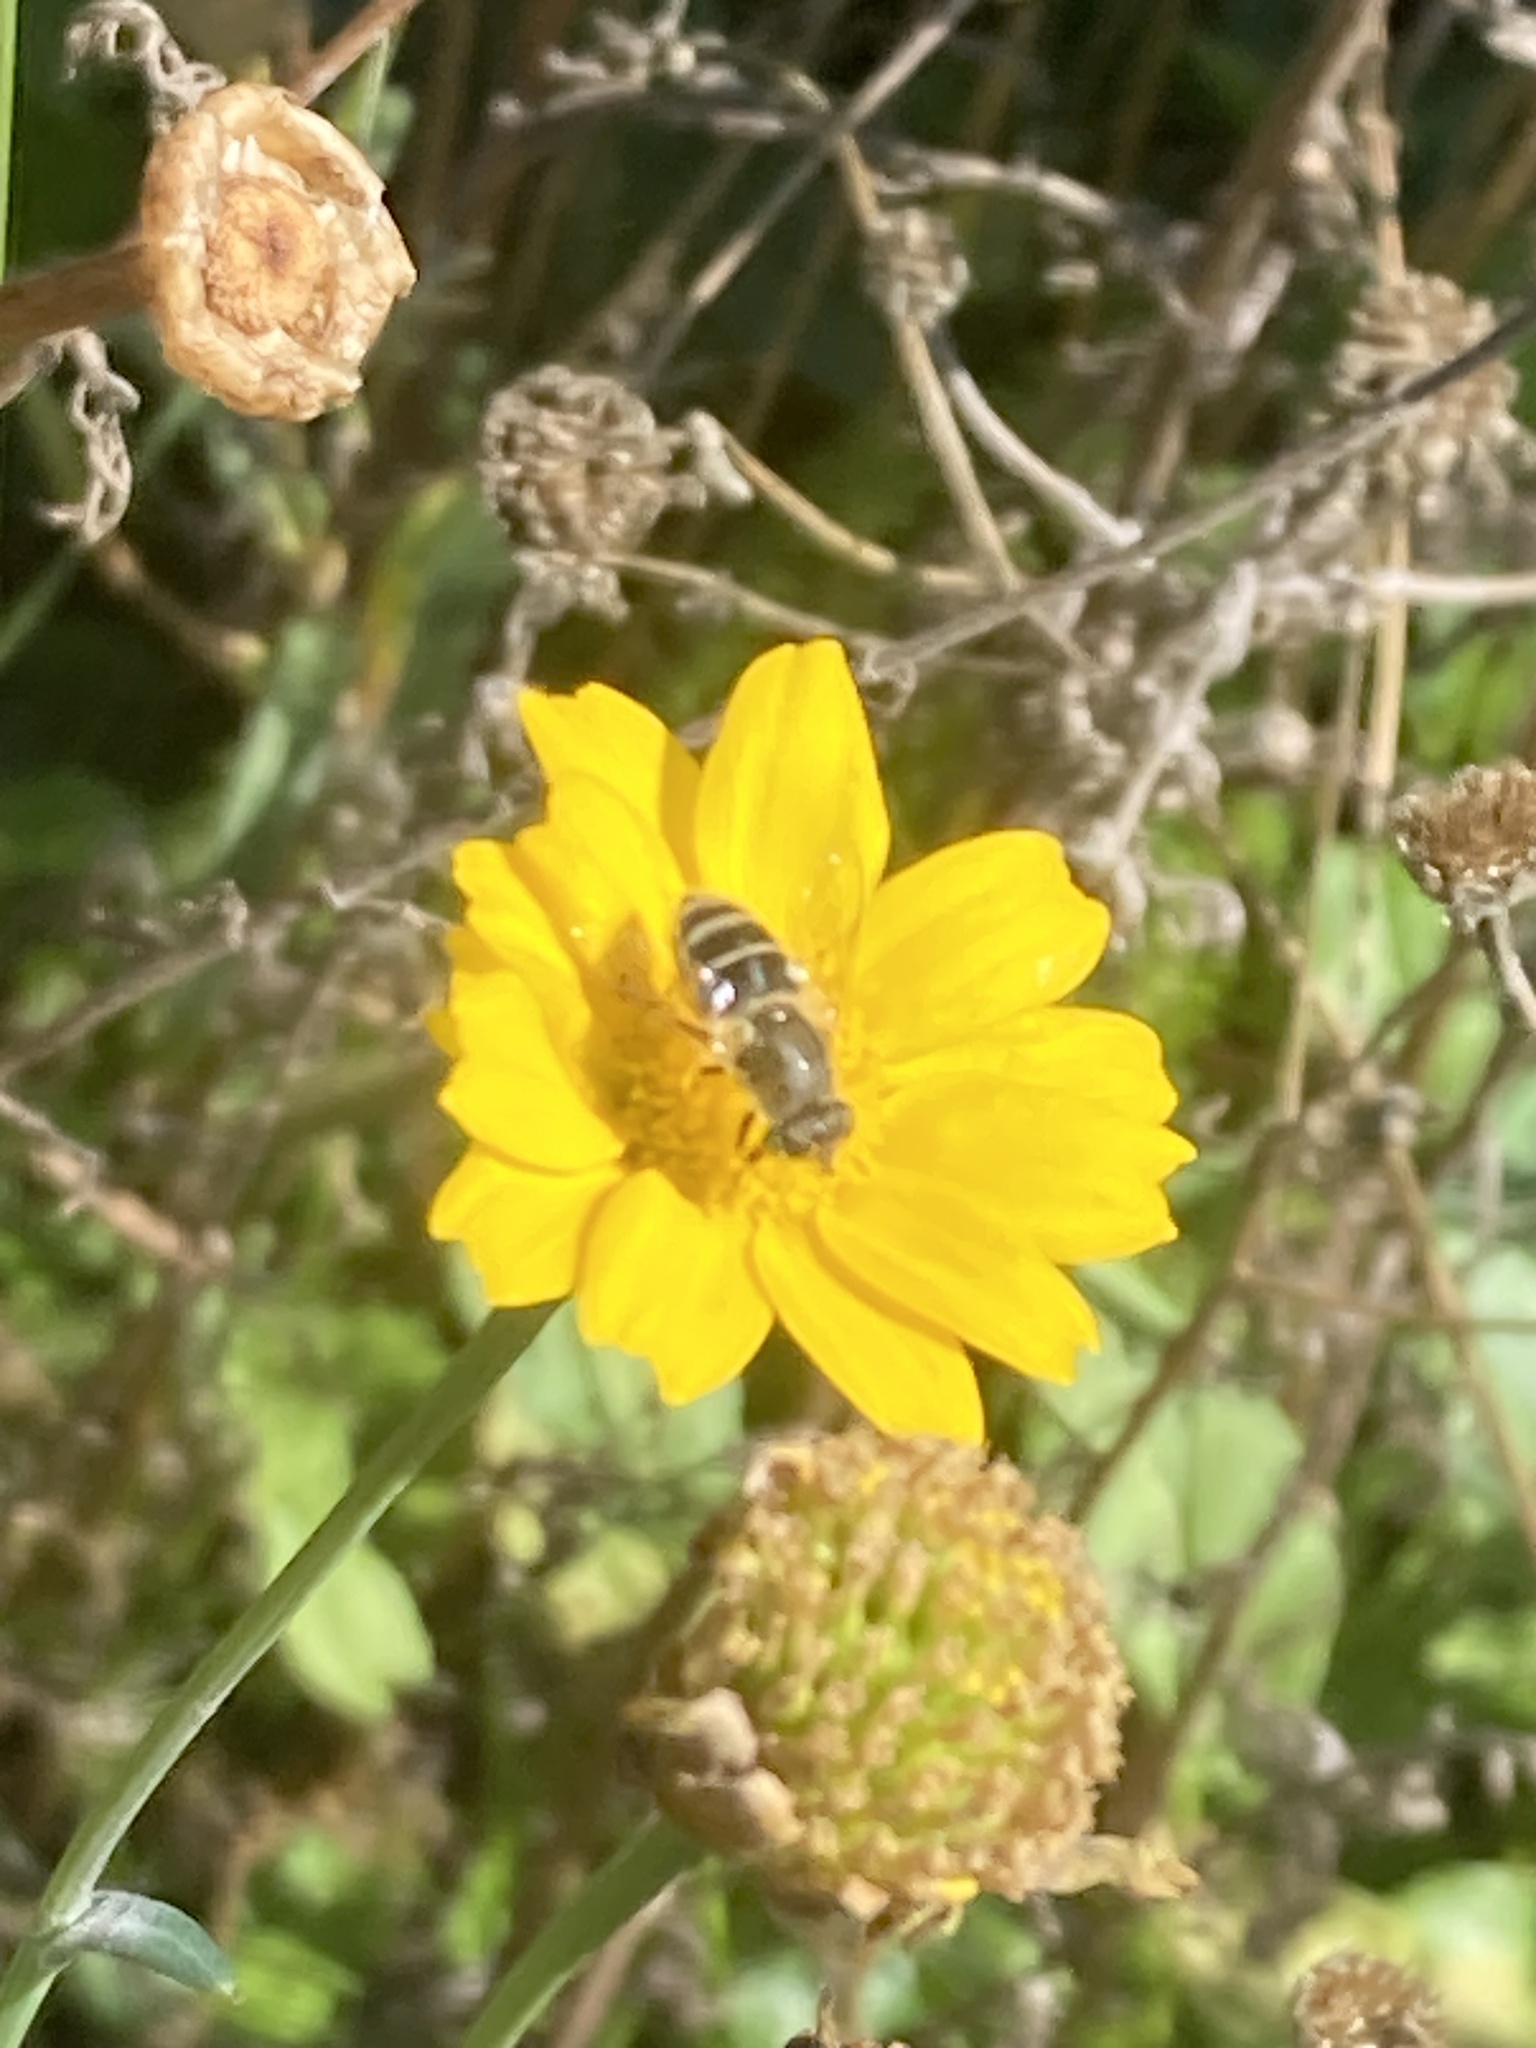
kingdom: Animalia
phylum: Arthropoda
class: Insecta
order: Diptera
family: Syrphidae
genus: Eoseristalis
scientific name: Eoseristalis
